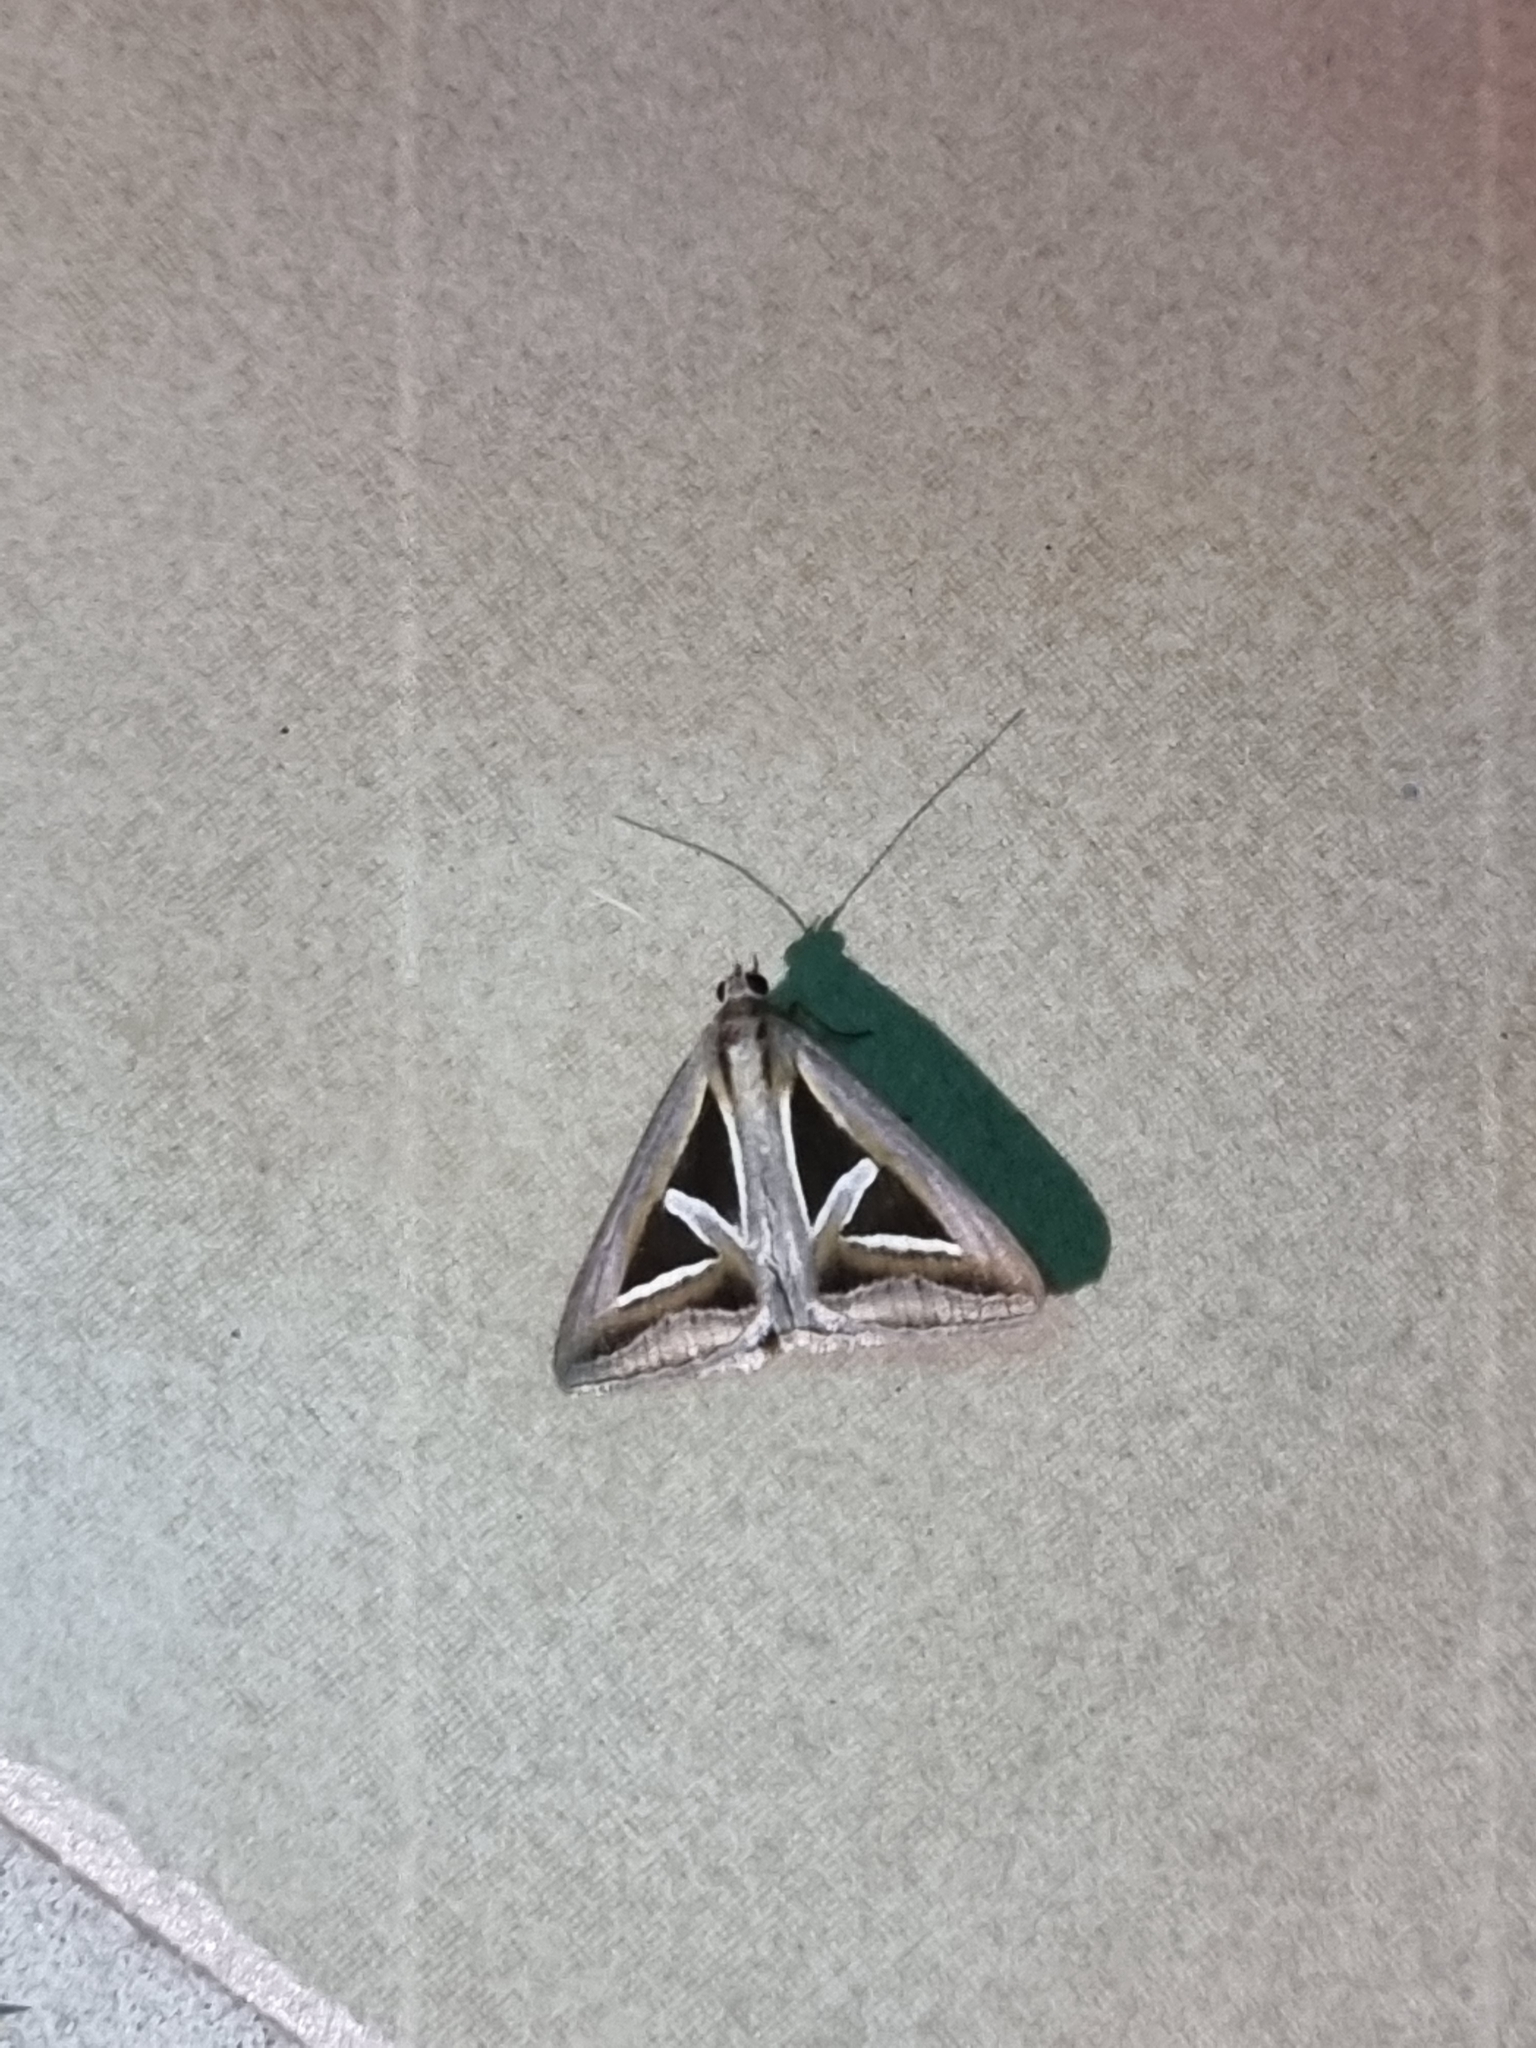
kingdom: Animalia
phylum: Arthropoda
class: Insecta
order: Lepidoptera
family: Erebidae
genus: Trigonodes
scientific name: Trigonodes hyppasia
